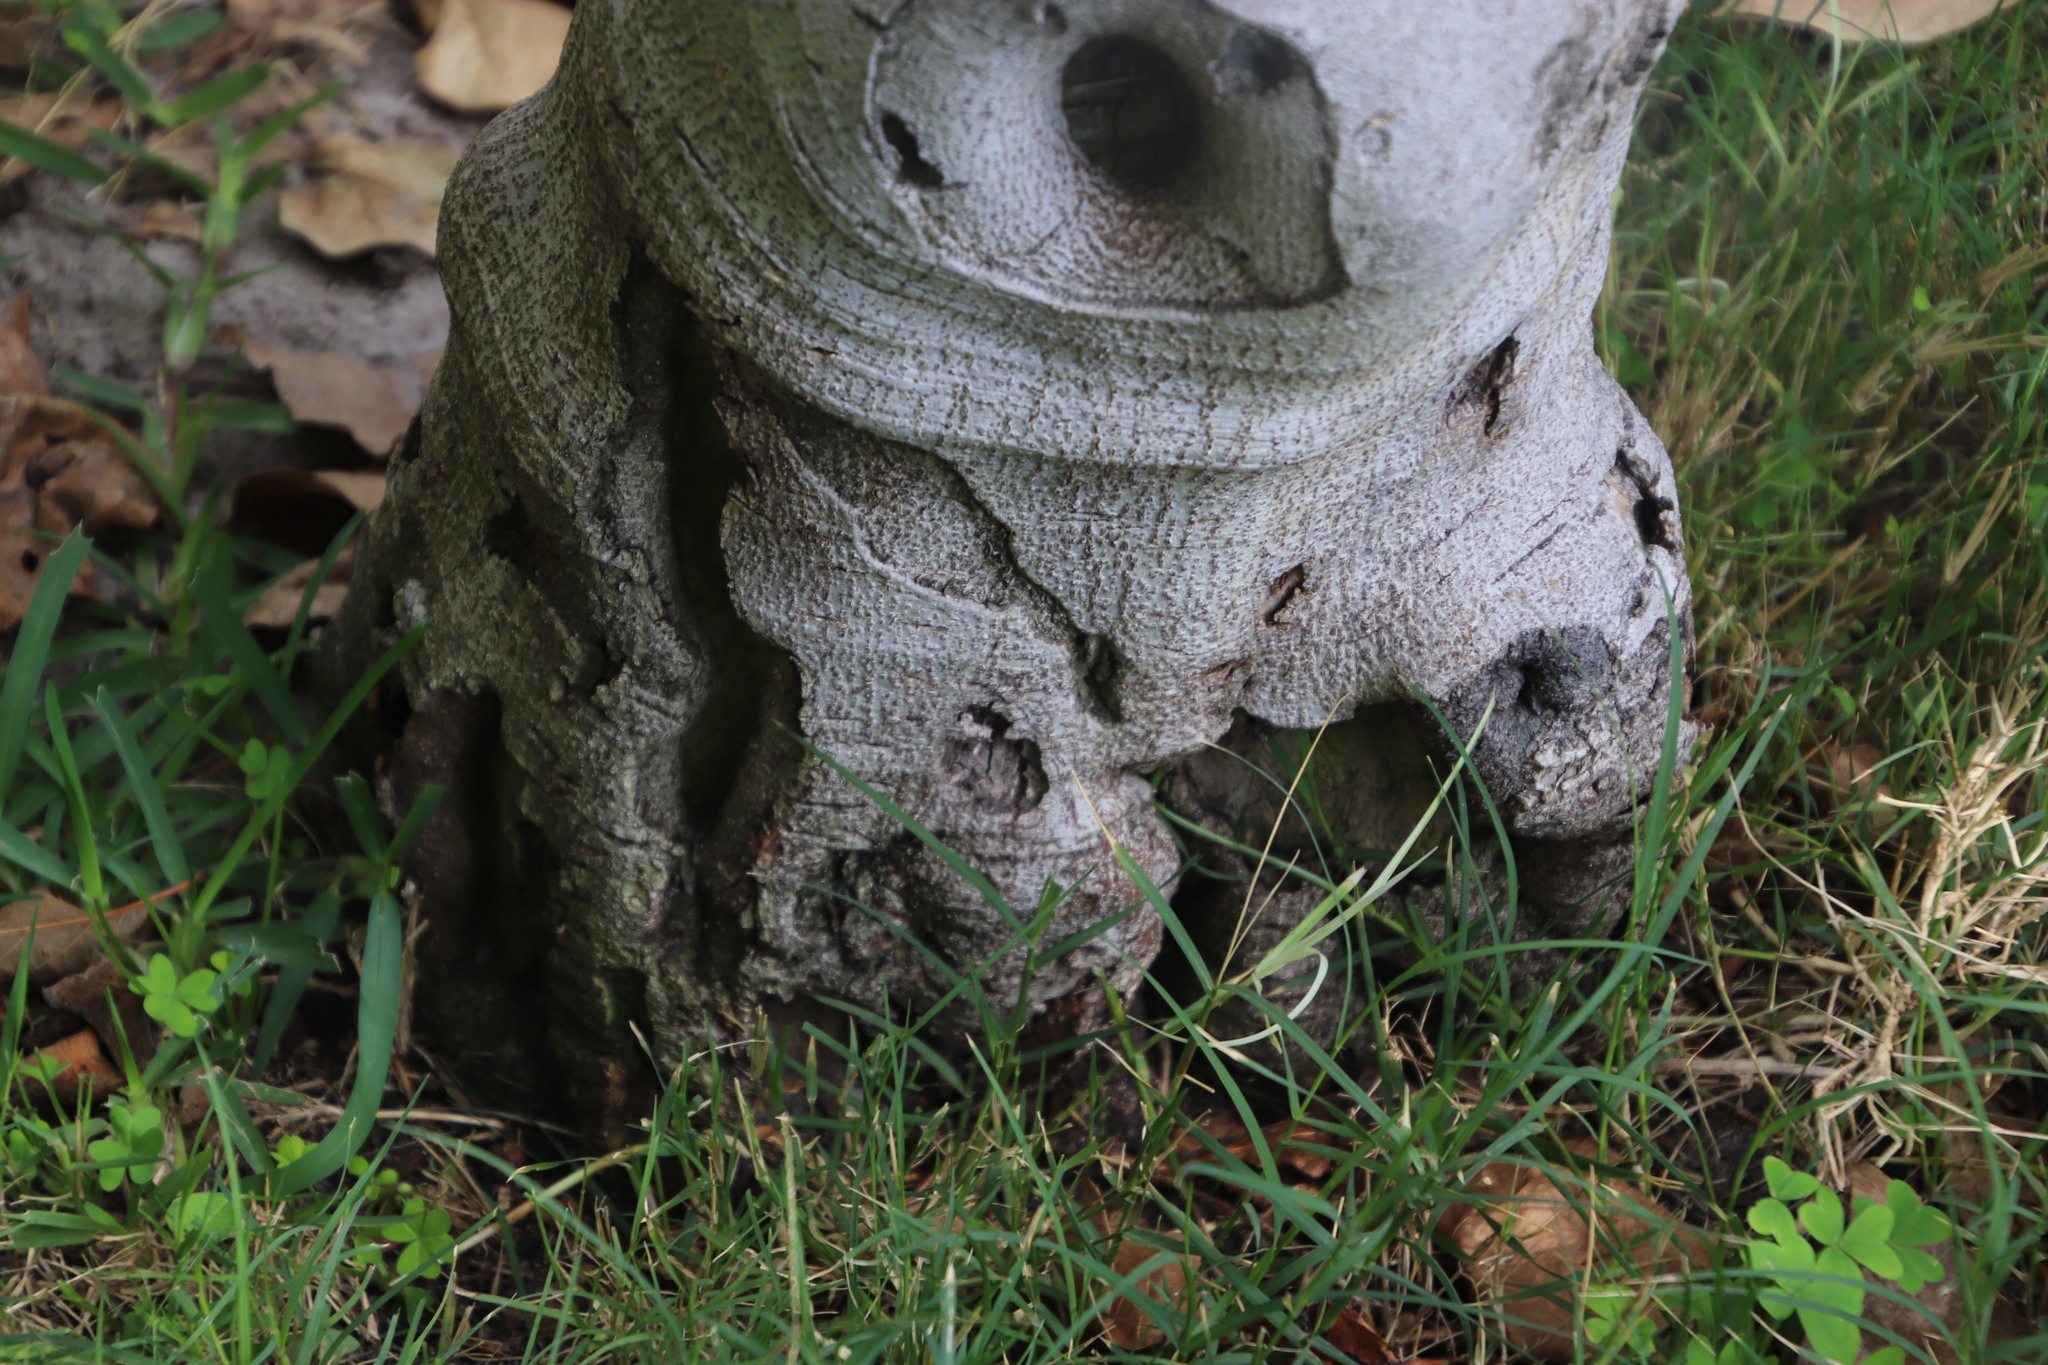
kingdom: Animalia
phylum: Arthropoda
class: Insecta
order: Coleoptera
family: Cerambycidae
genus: Phryneta
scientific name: Phryneta spinator
